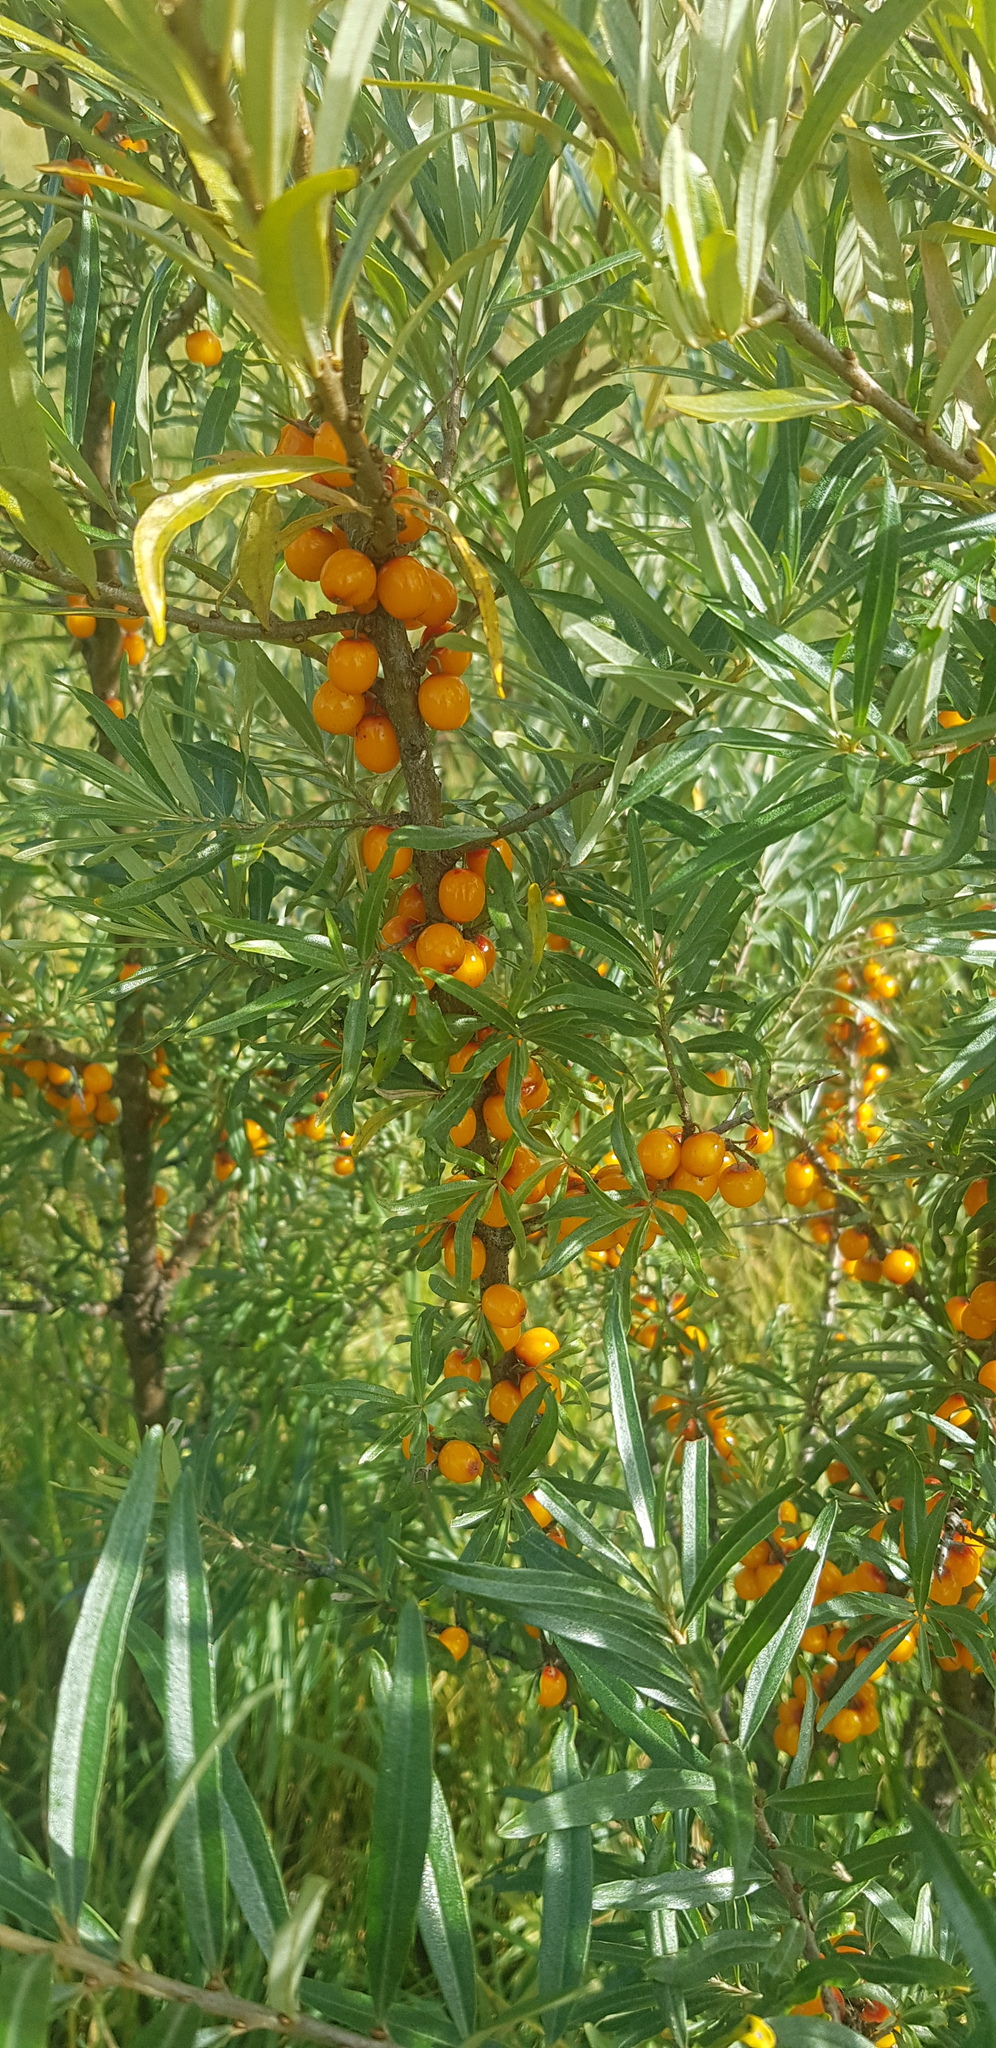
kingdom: Plantae
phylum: Tracheophyta
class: Magnoliopsida
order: Rosales
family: Elaeagnaceae
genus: Hippophae
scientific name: Hippophae rhamnoides
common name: Sea-buckthorn
